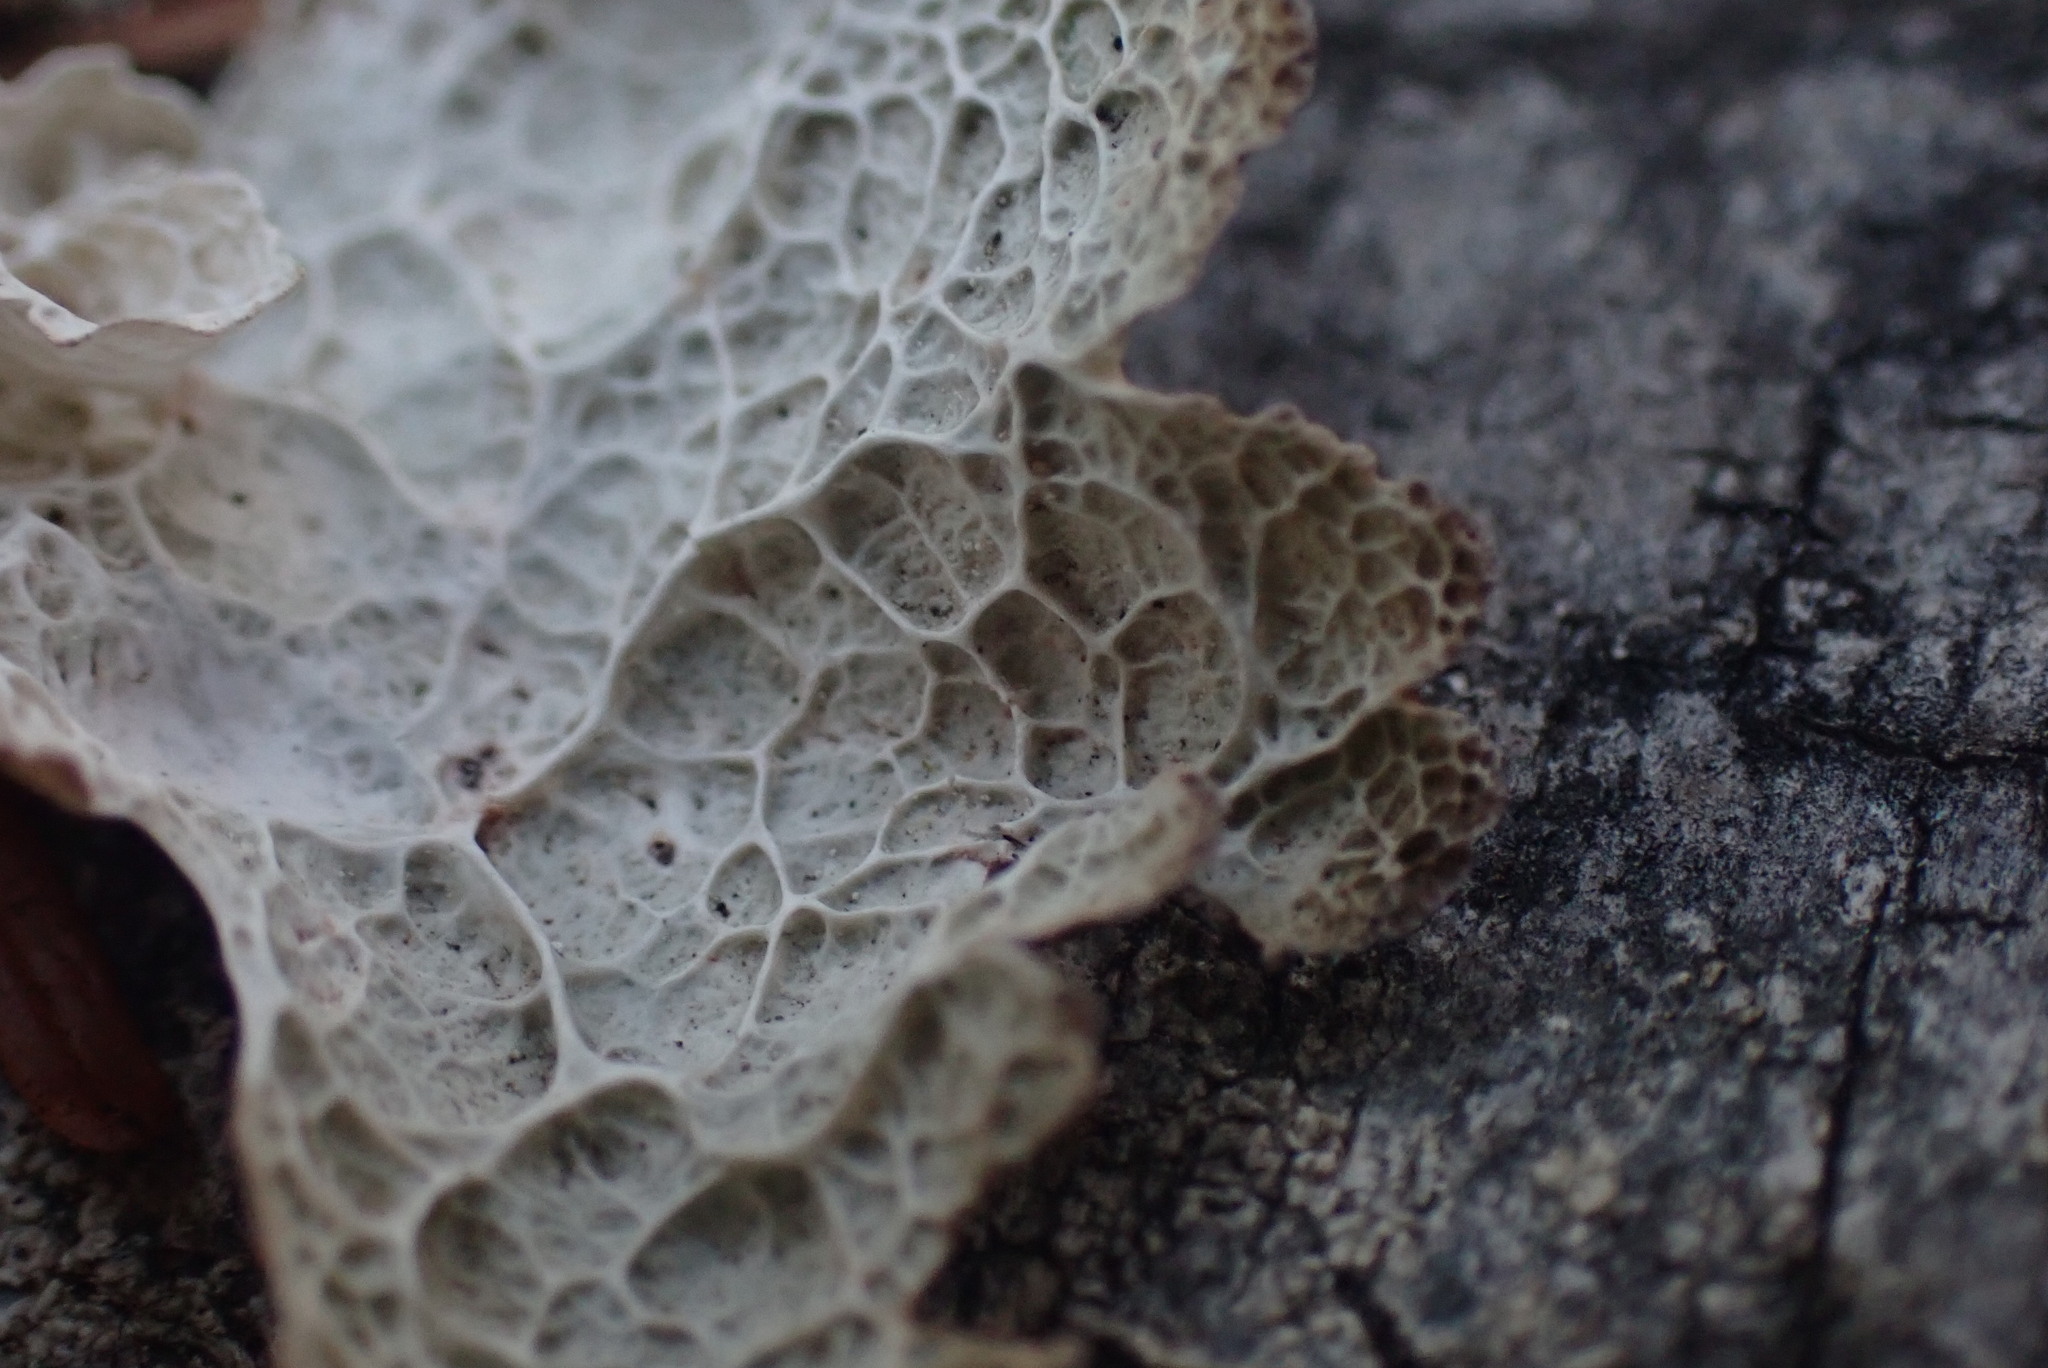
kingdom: Fungi
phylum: Ascomycota
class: Lecanoromycetes
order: Lecanorales
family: Parmeliaceae
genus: Platismatia
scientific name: Platismatia norvegica
